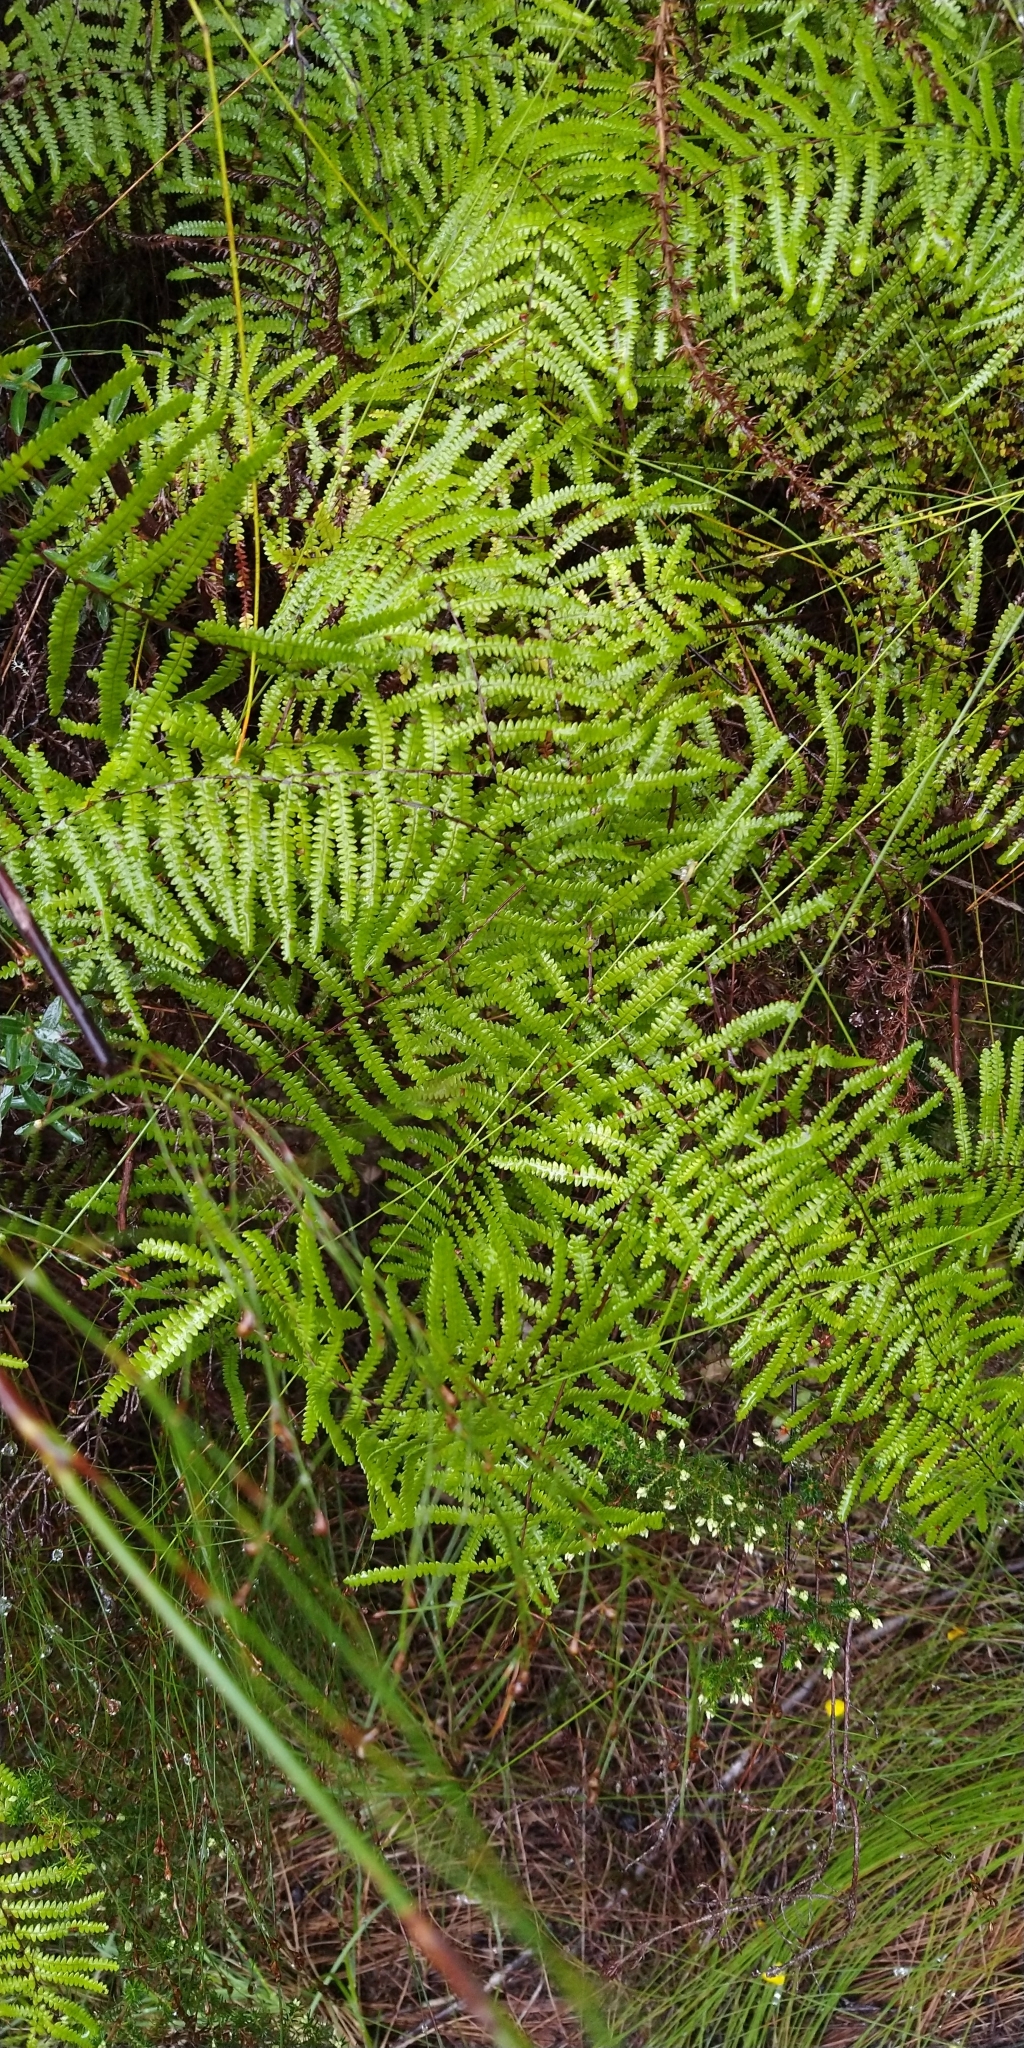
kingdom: Plantae
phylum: Tracheophyta
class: Polypodiopsida
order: Gleicheniales
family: Gleicheniaceae
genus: Gleichenia
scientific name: Gleichenia polypodioides
